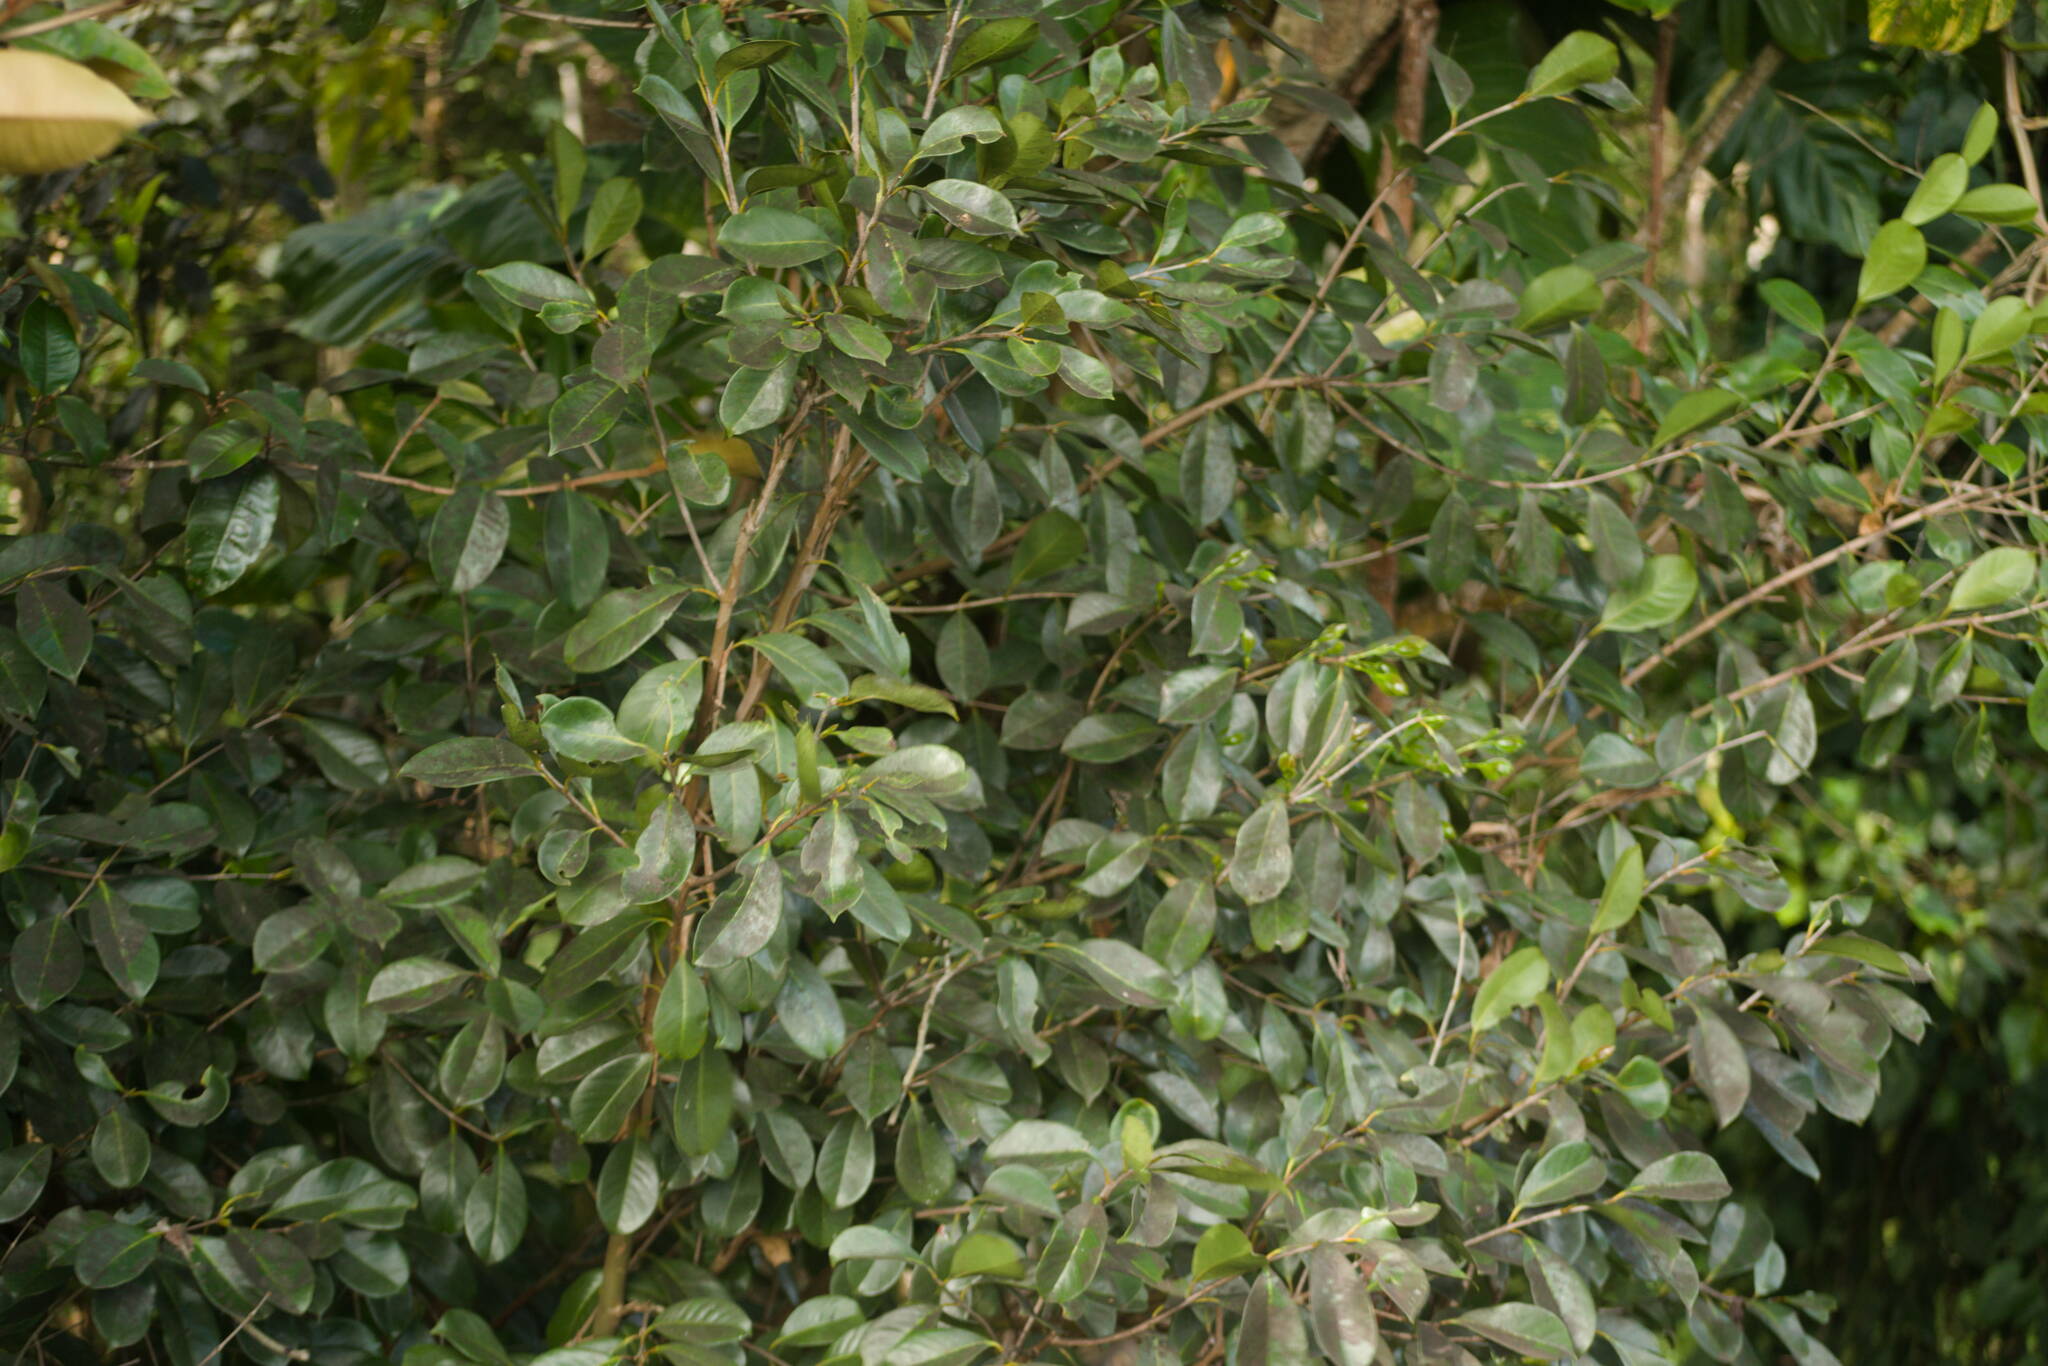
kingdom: Plantae
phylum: Tracheophyta
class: Magnoliopsida
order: Myrtales
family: Myrtaceae
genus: Psidium
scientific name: Psidium cattleianum
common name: Strawberry guava
